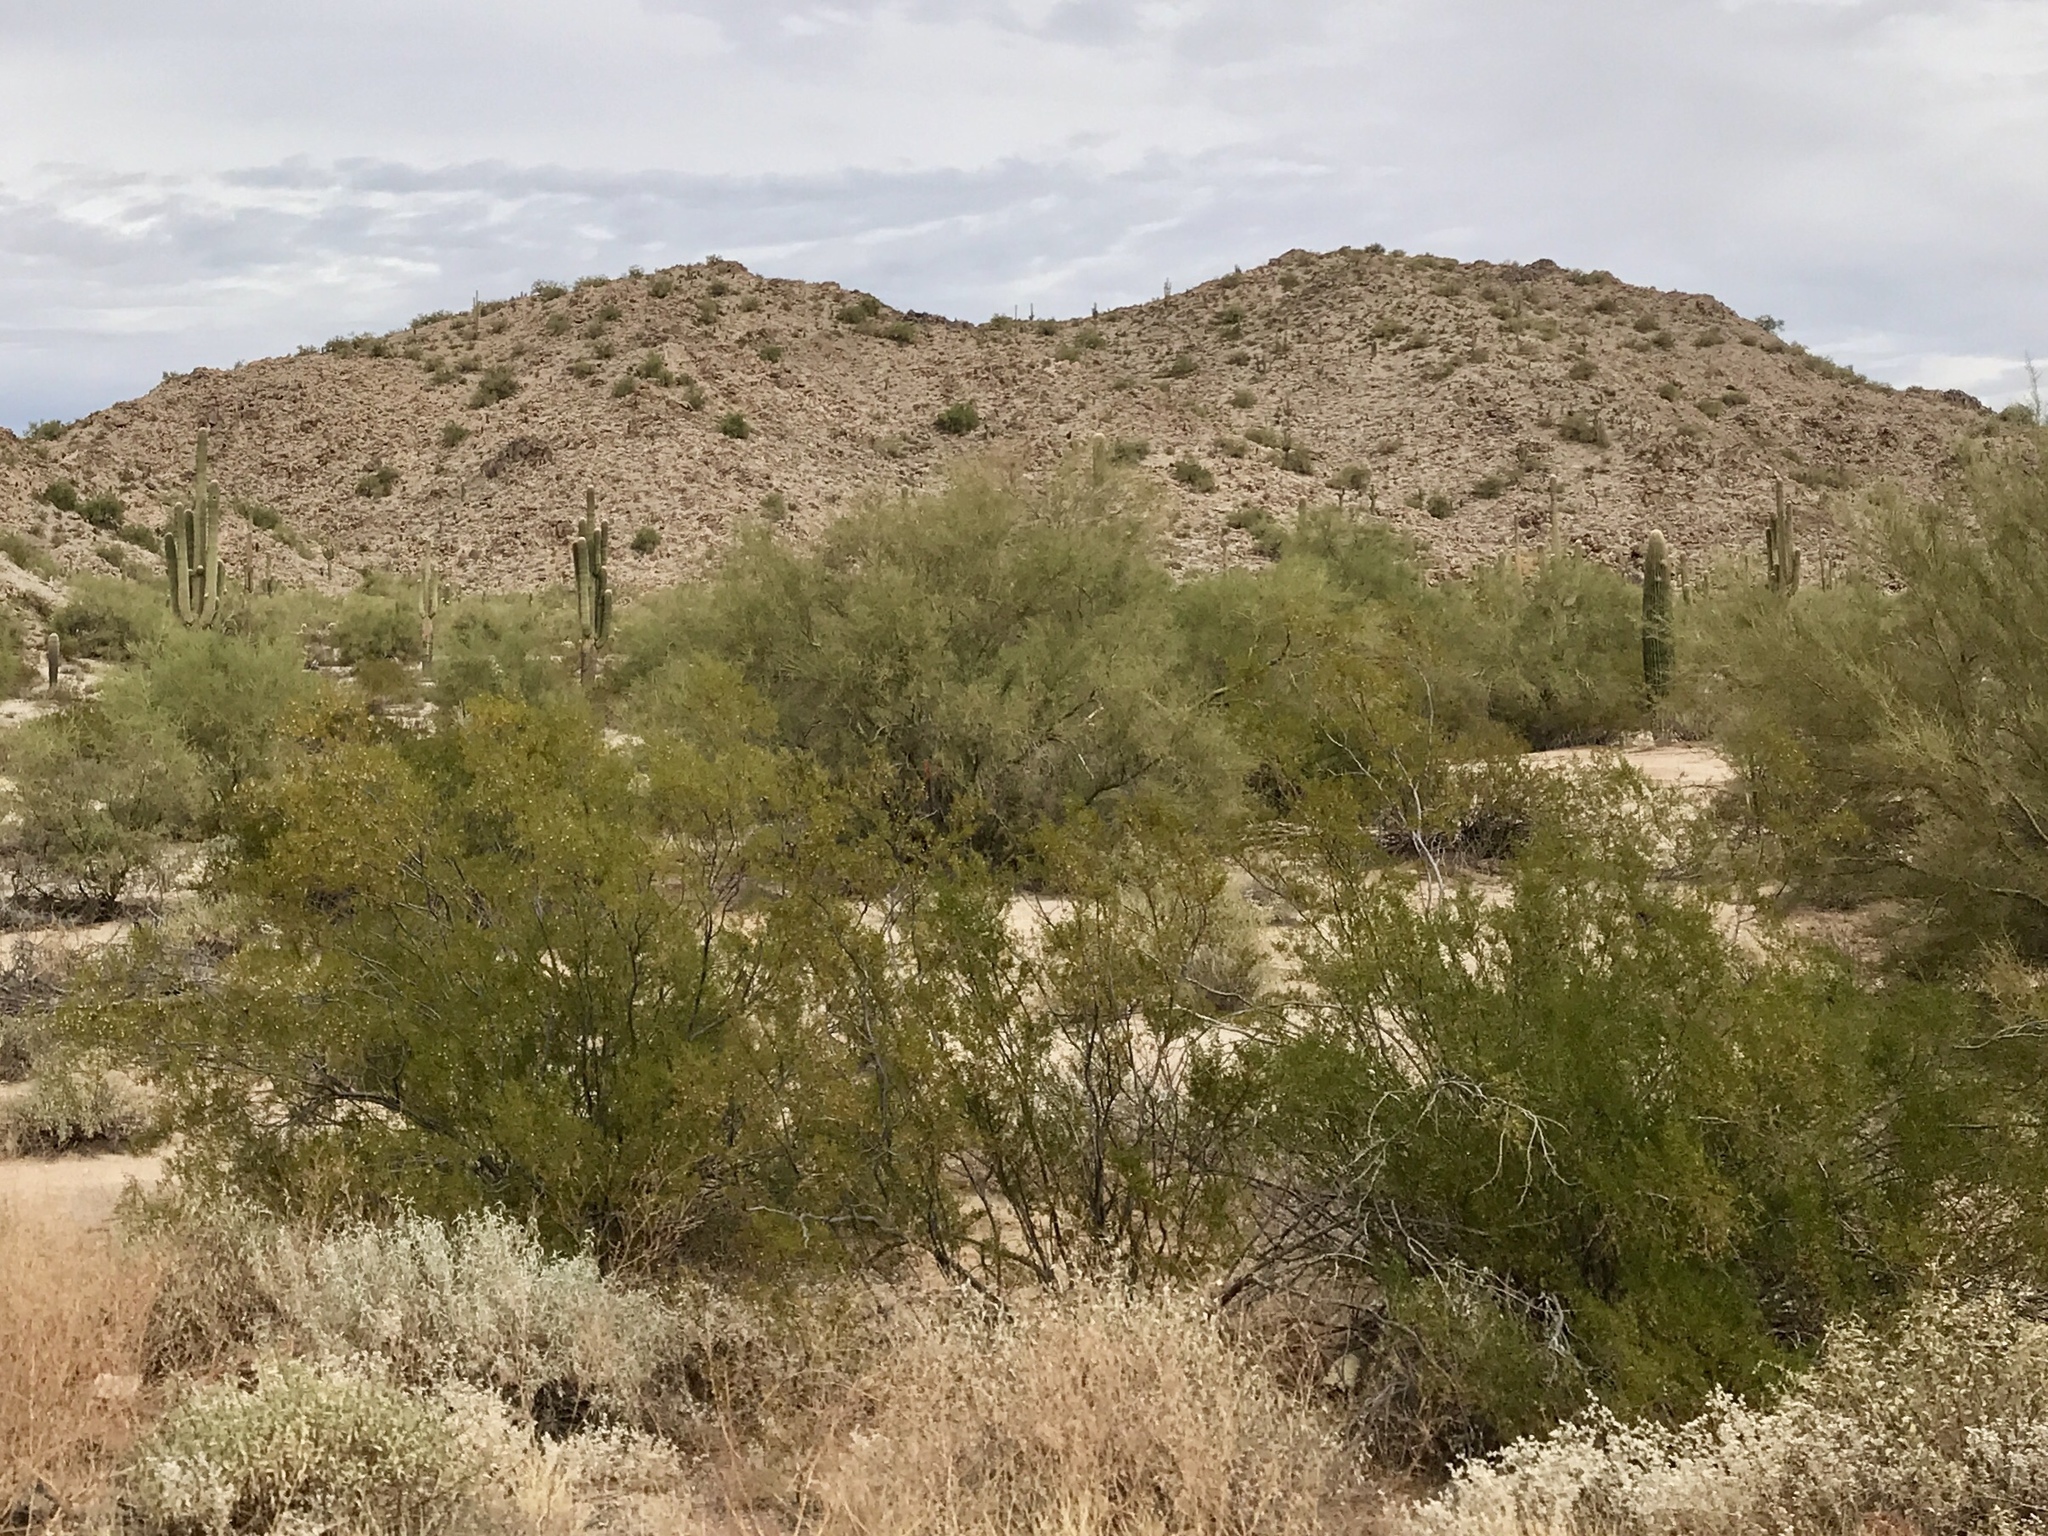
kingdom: Plantae
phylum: Tracheophyta
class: Magnoliopsida
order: Zygophyllales
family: Zygophyllaceae
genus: Larrea
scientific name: Larrea tridentata
